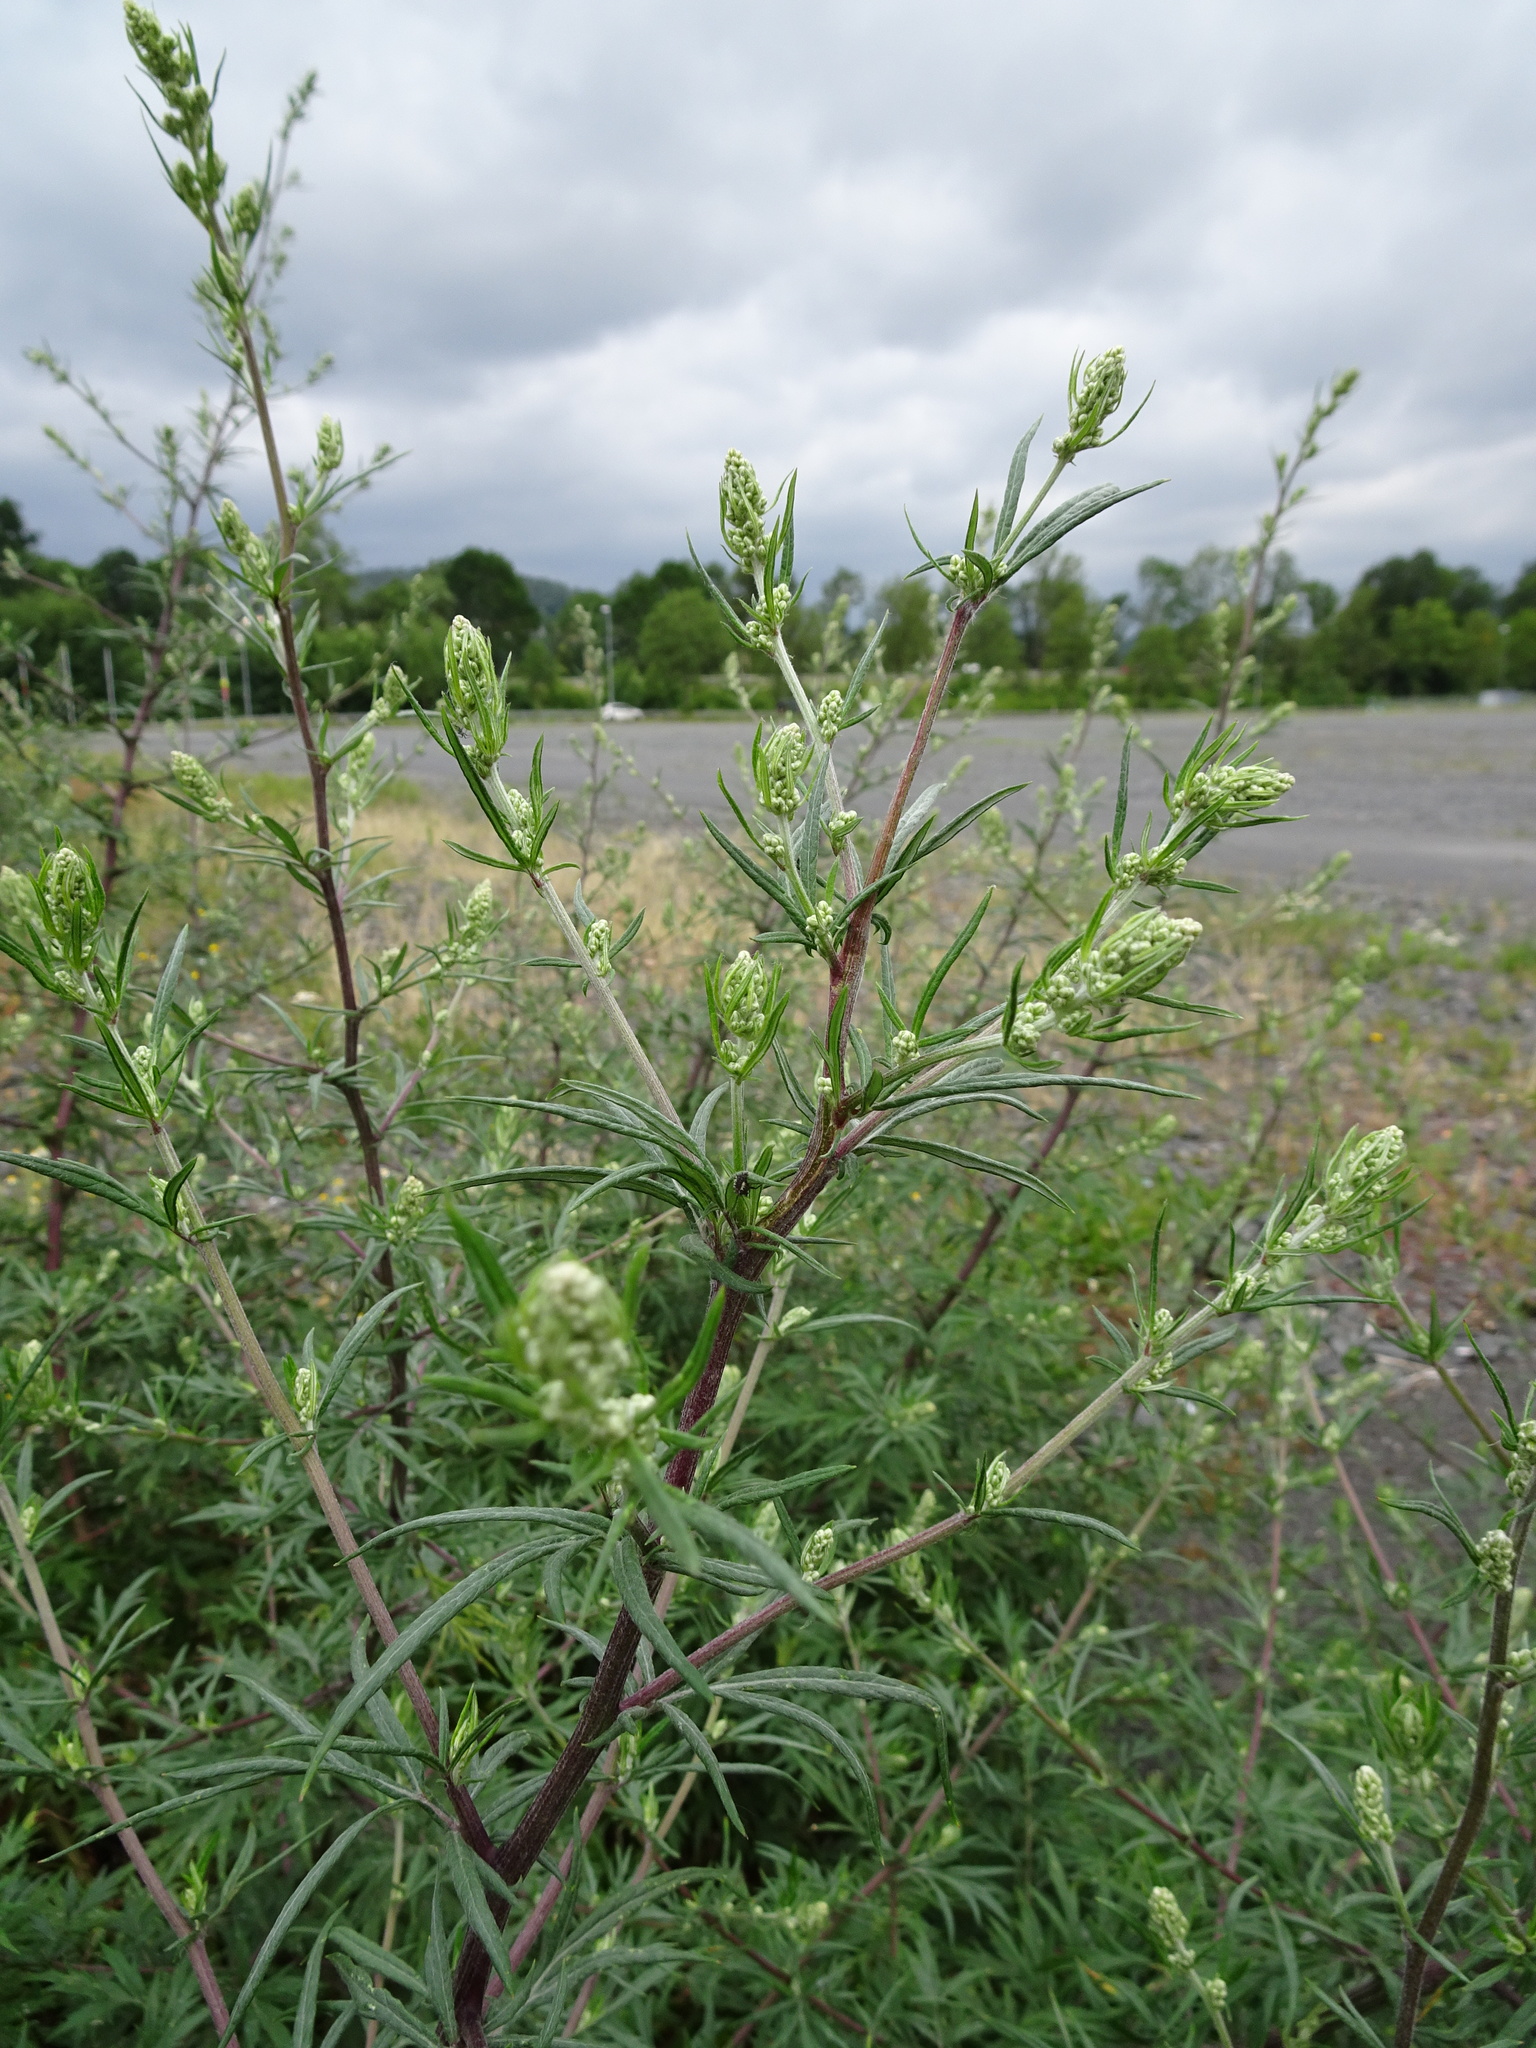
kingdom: Plantae
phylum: Tracheophyta
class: Magnoliopsida
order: Asterales
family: Asteraceae
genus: Artemisia
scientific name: Artemisia vulgaris
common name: Mugwort
